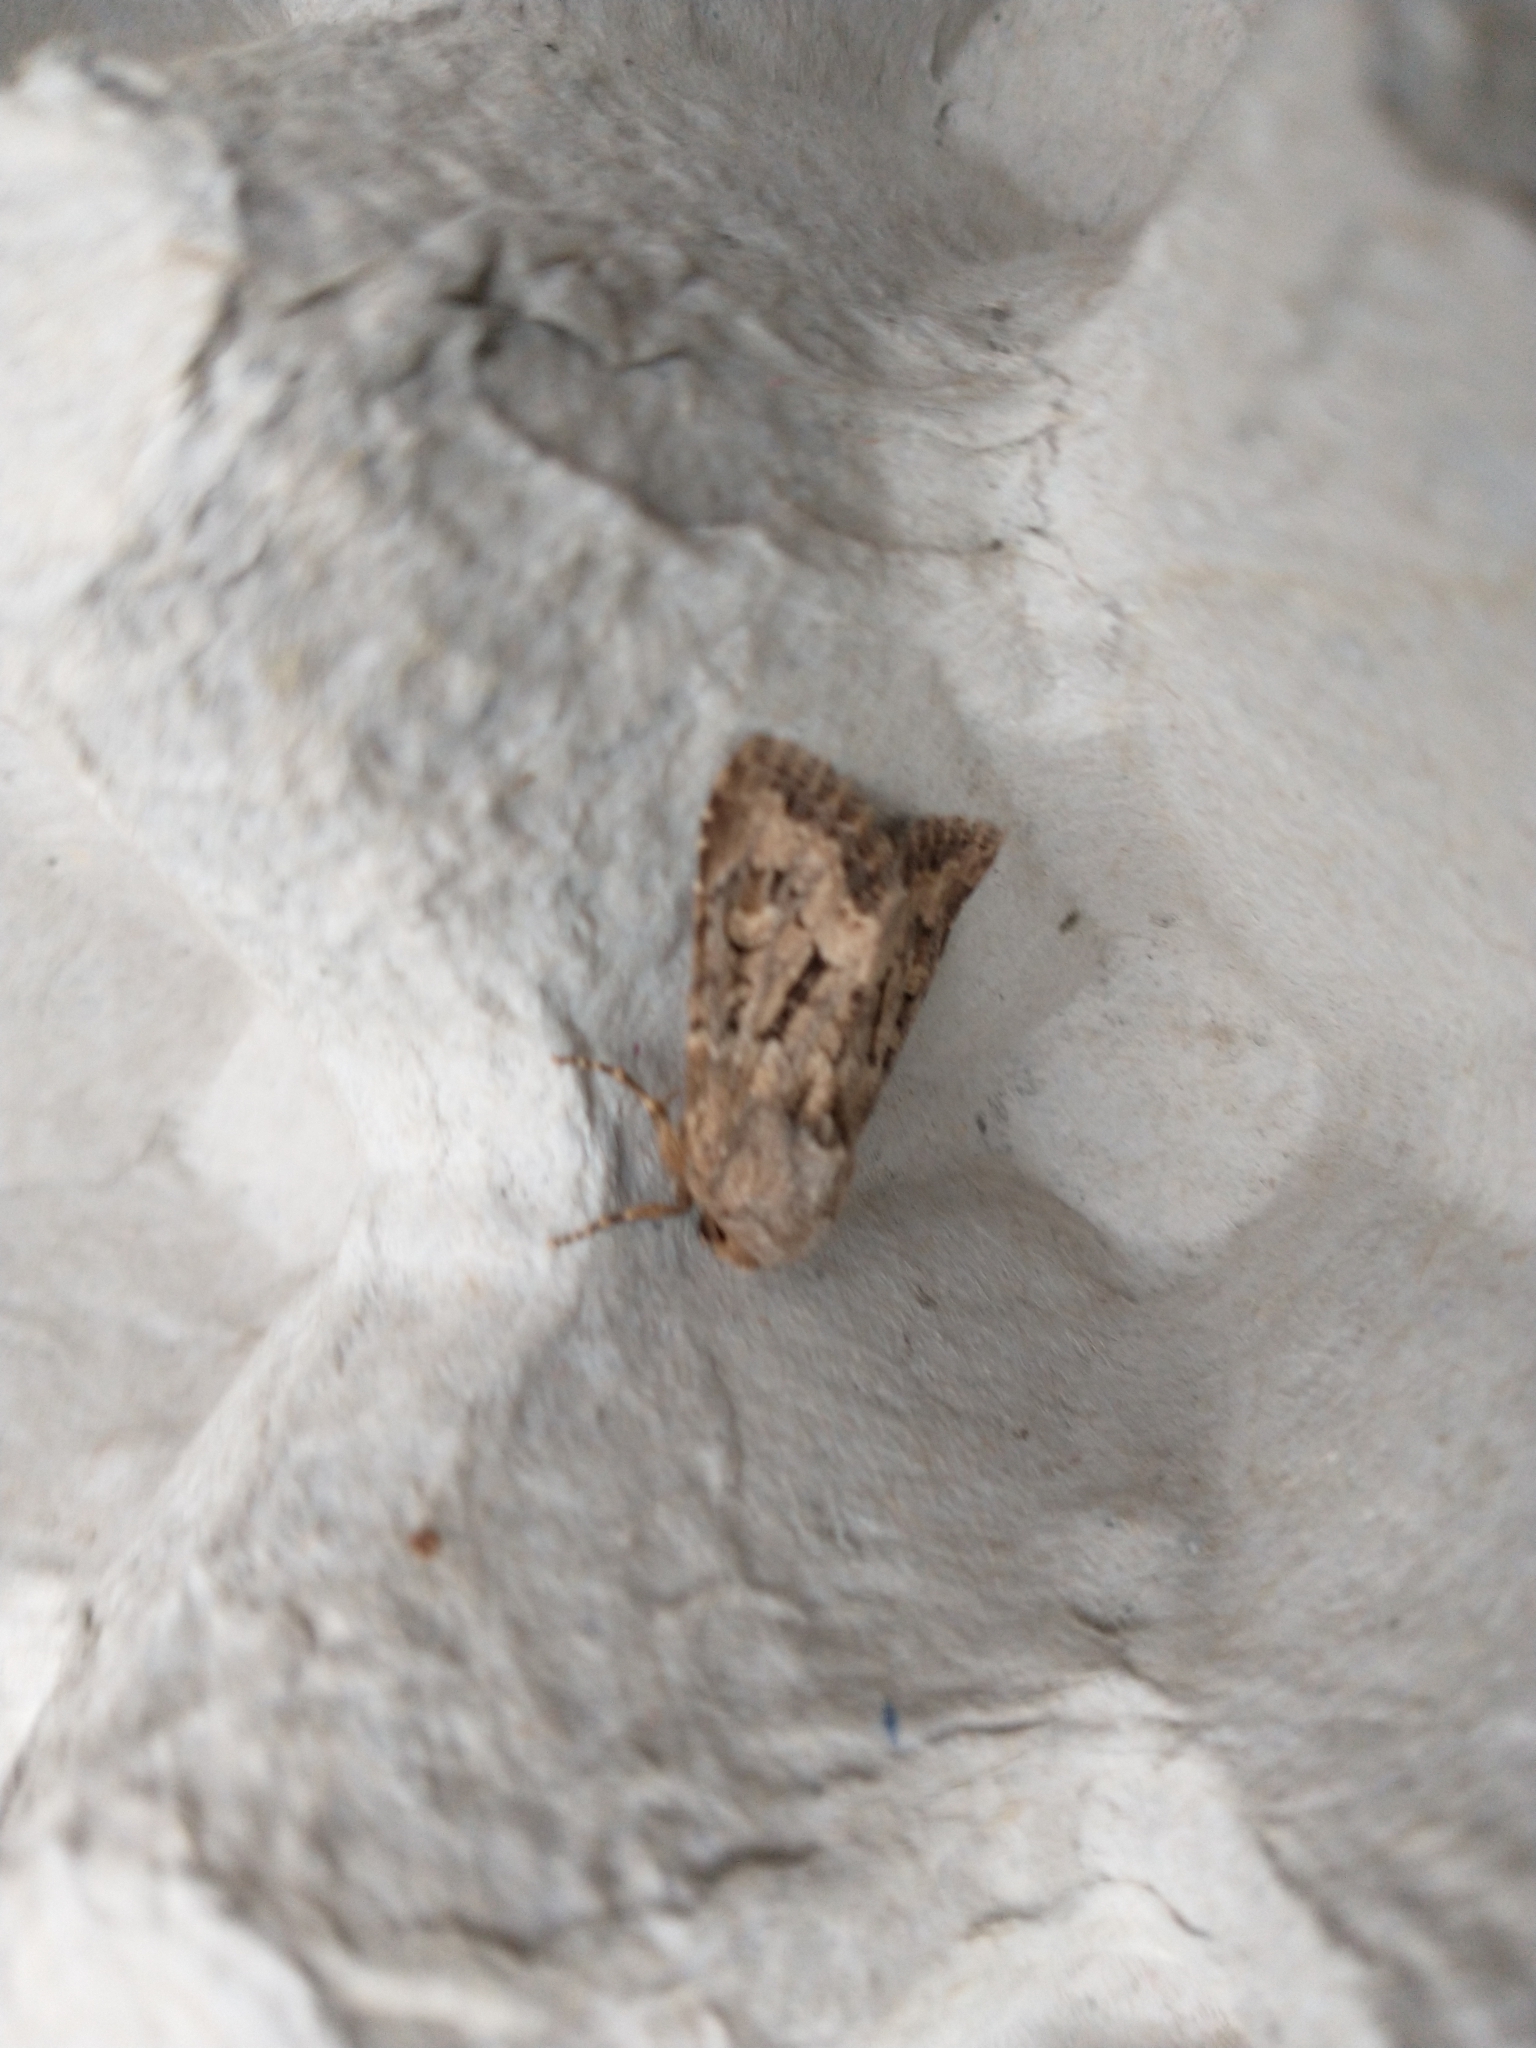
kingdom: Animalia
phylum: Arthropoda
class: Insecta
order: Lepidoptera
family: Noctuidae
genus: Luperina
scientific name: Luperina testacea
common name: Flounced rustic
